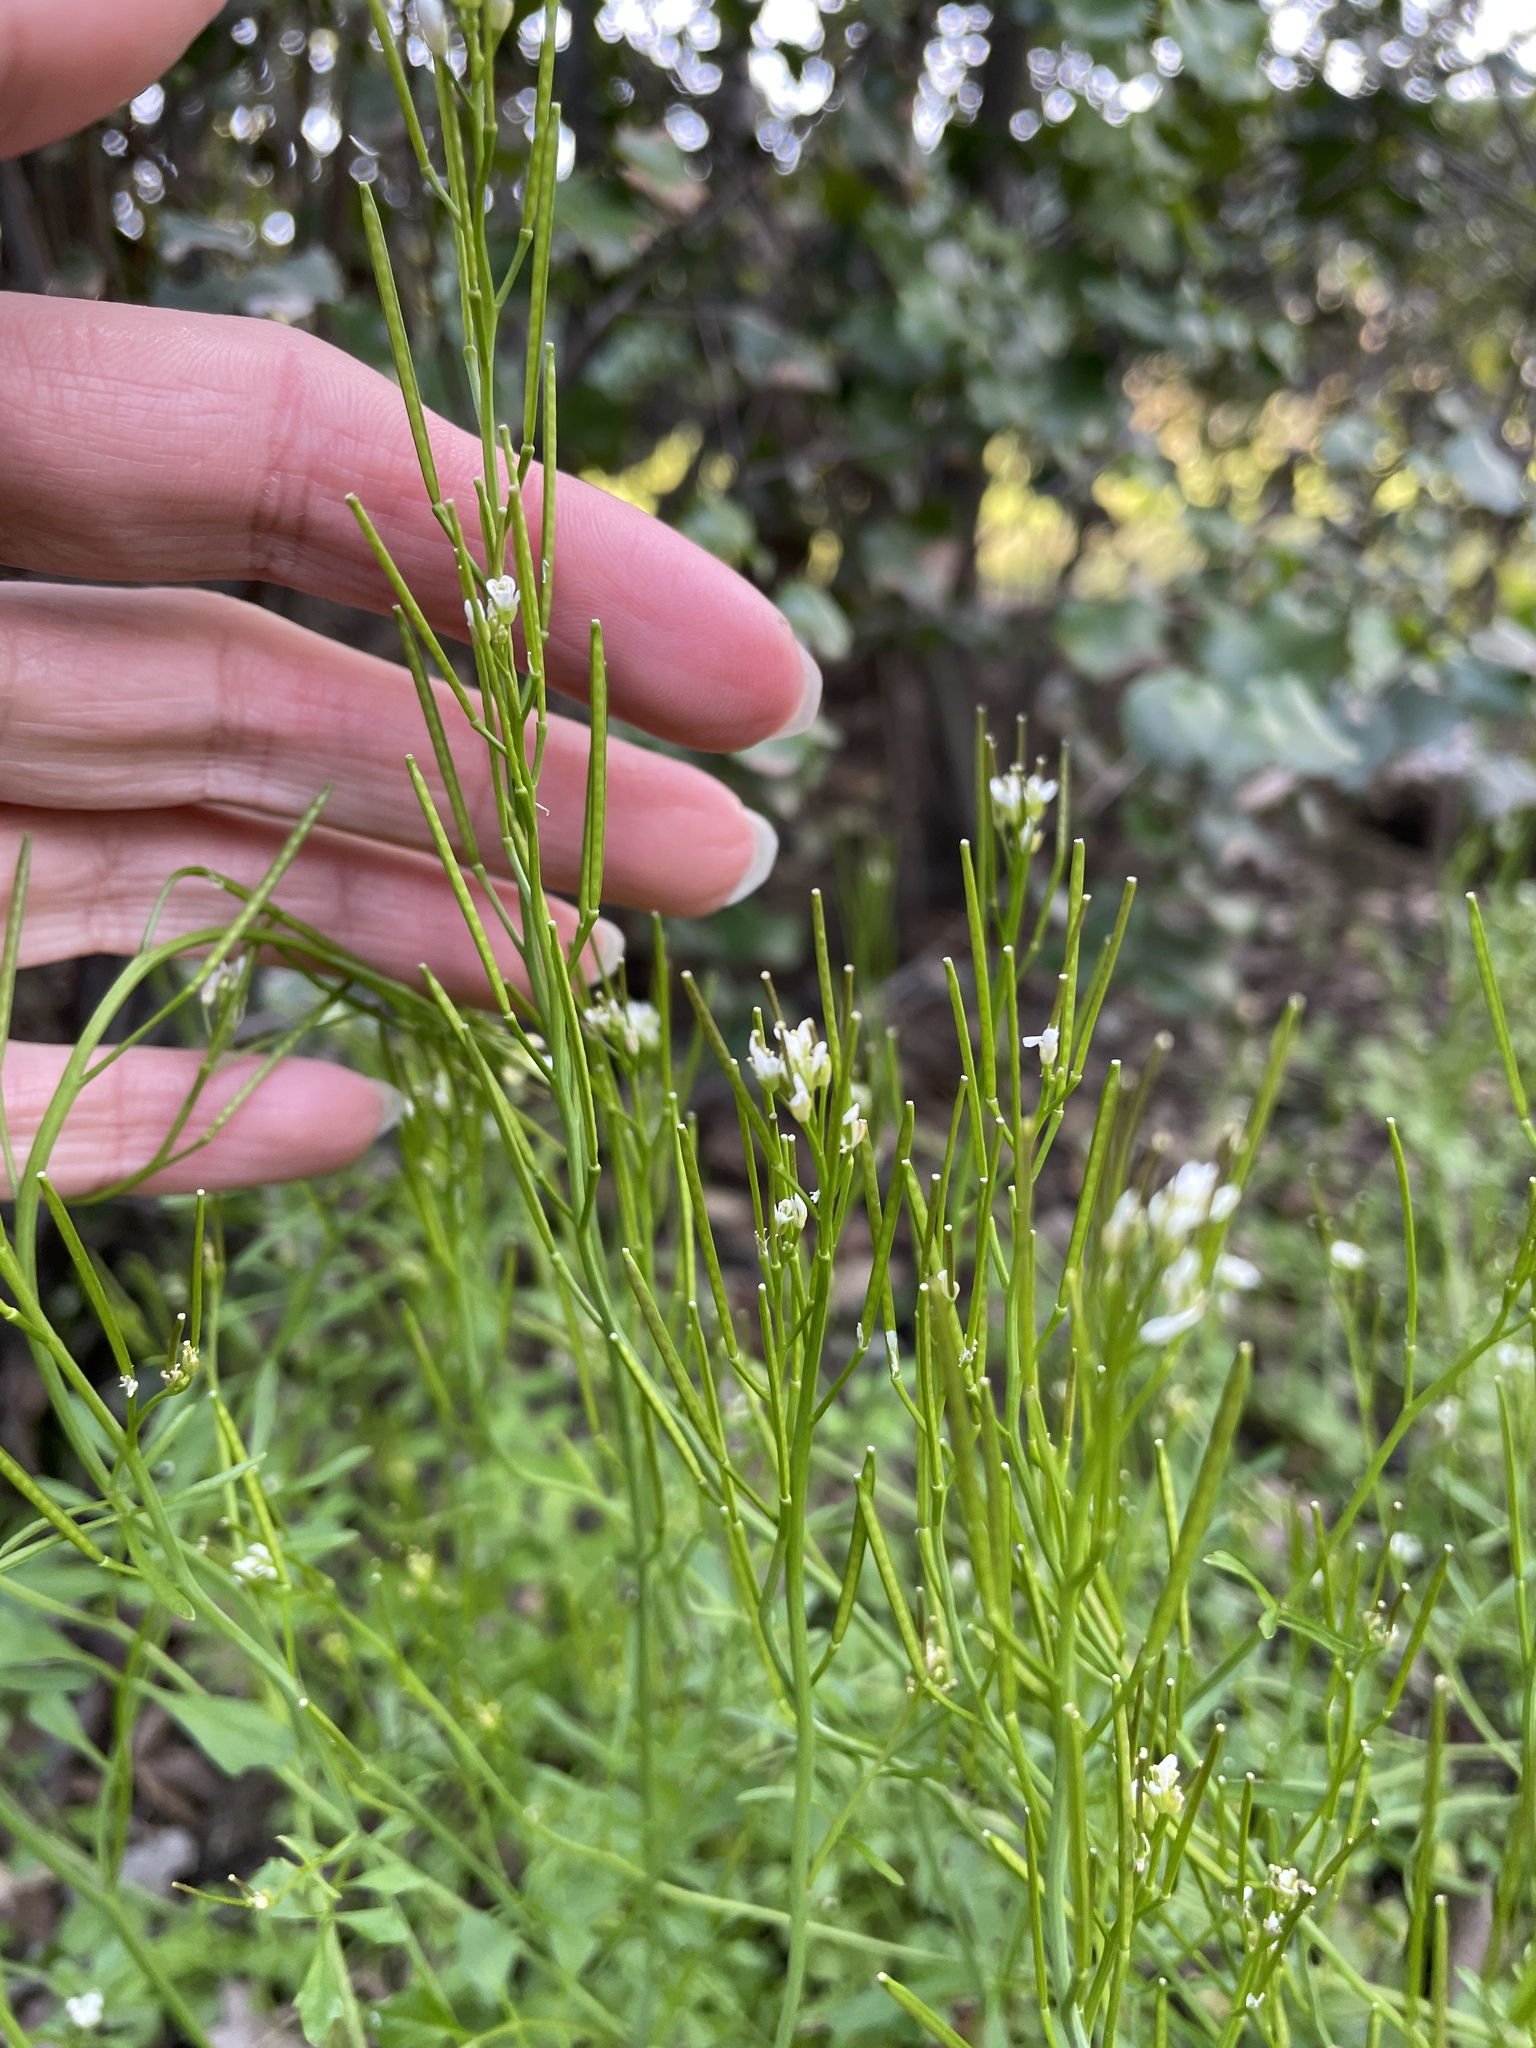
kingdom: Plantae
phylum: Tracheophyta
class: Magnoliopsida
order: Brassicales
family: Brassicaceae
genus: Cardamine
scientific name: Cardamine hirsuta
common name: Hairy bittercress
